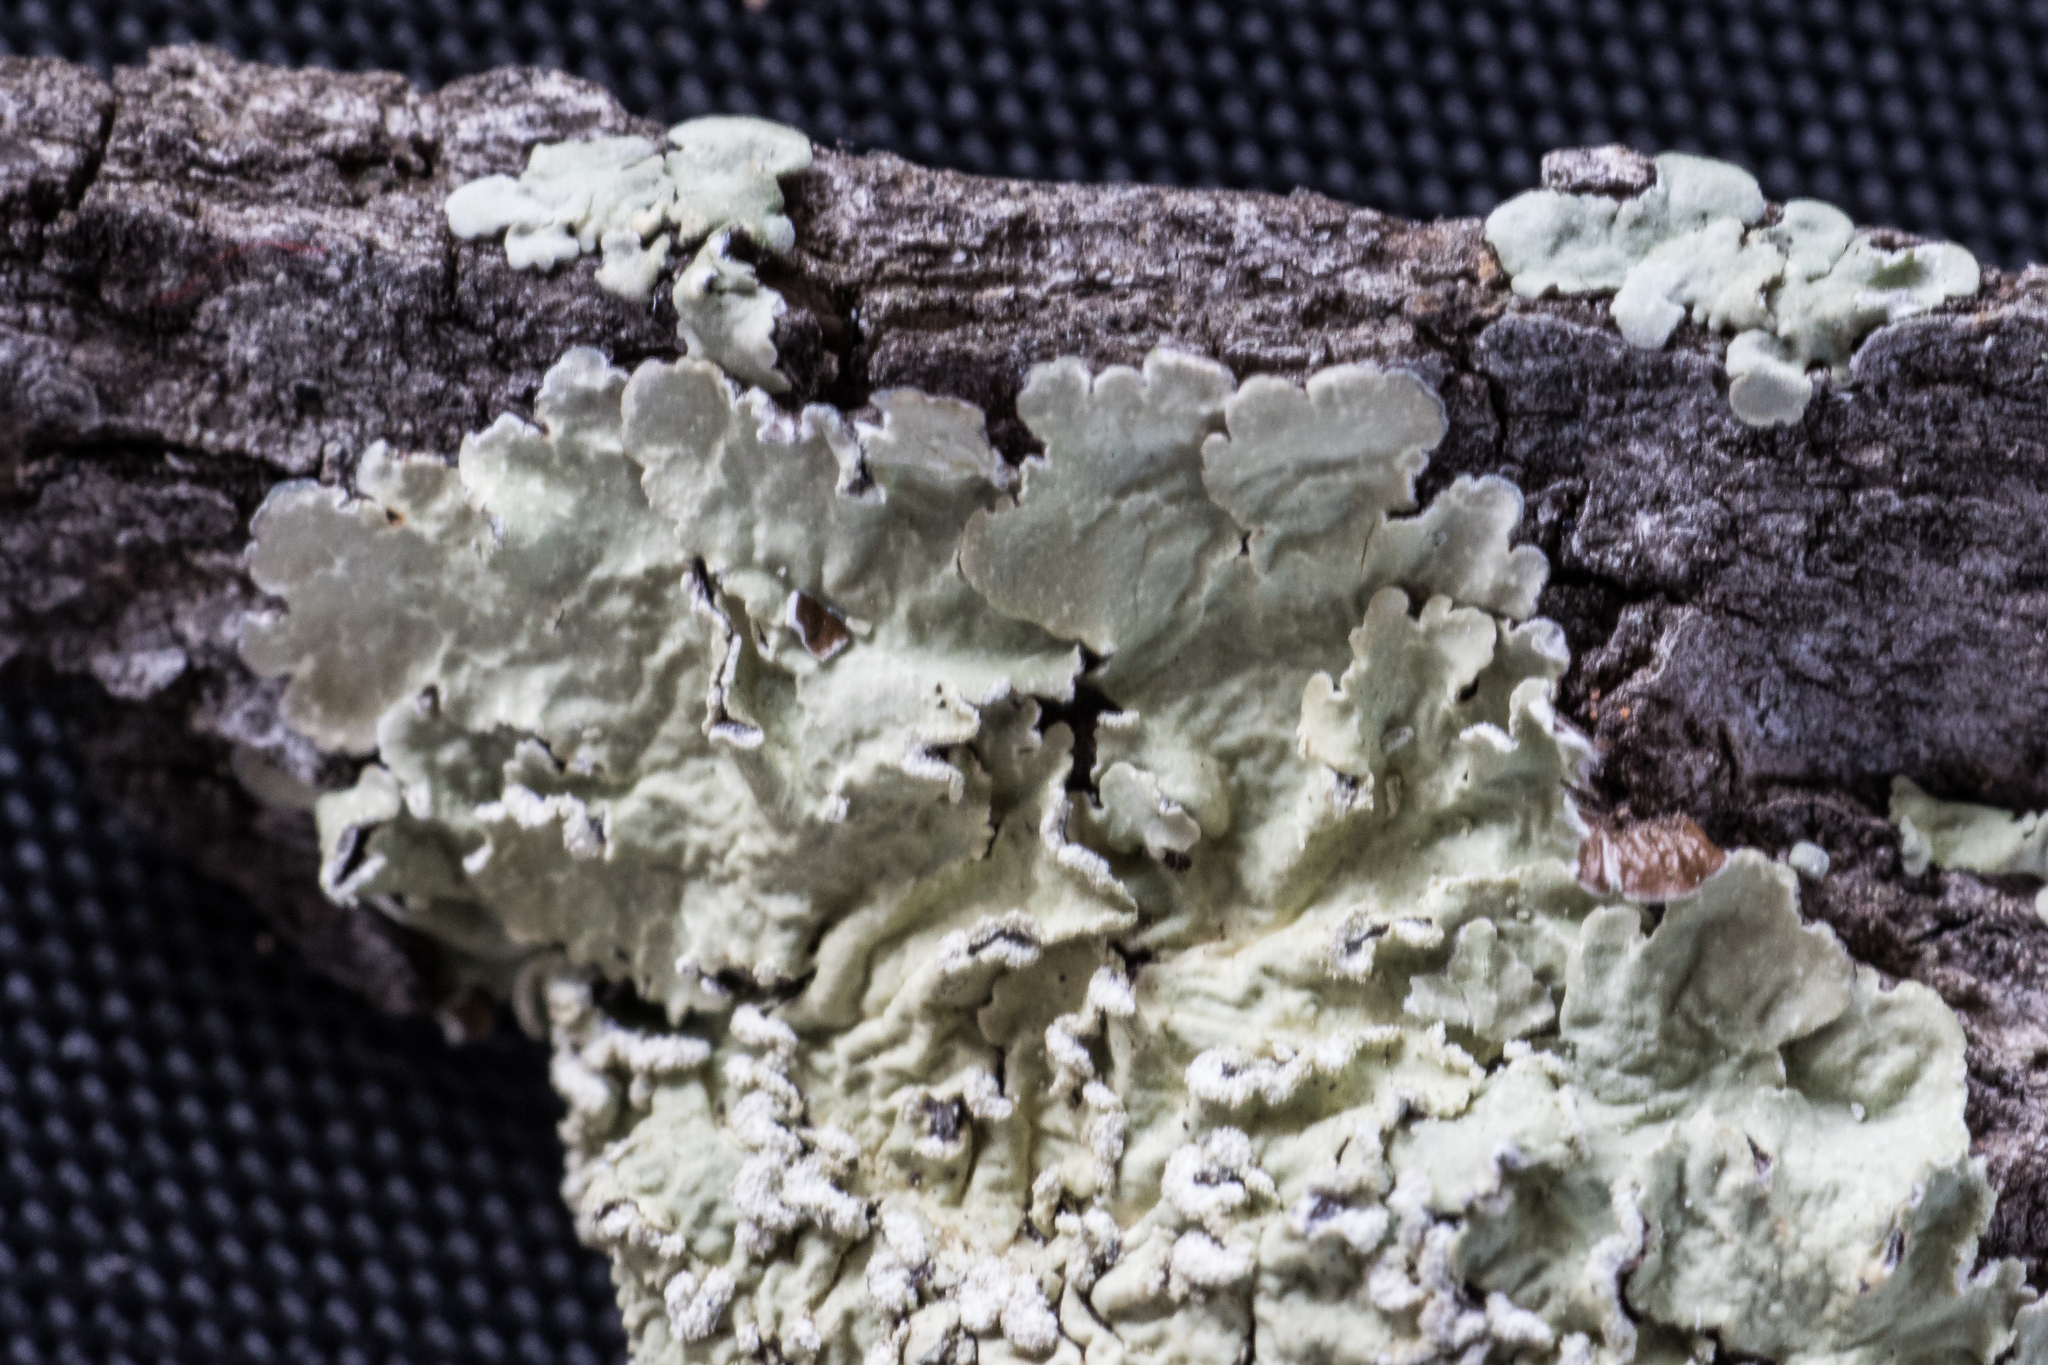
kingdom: Fungi
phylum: Ascomycota
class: Lecanoromycetes
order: Lecanorales
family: Parmeliaceae
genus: Flavopunctelia
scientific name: Flavopunctelia soredica
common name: Powder-edged speckled greenshield
